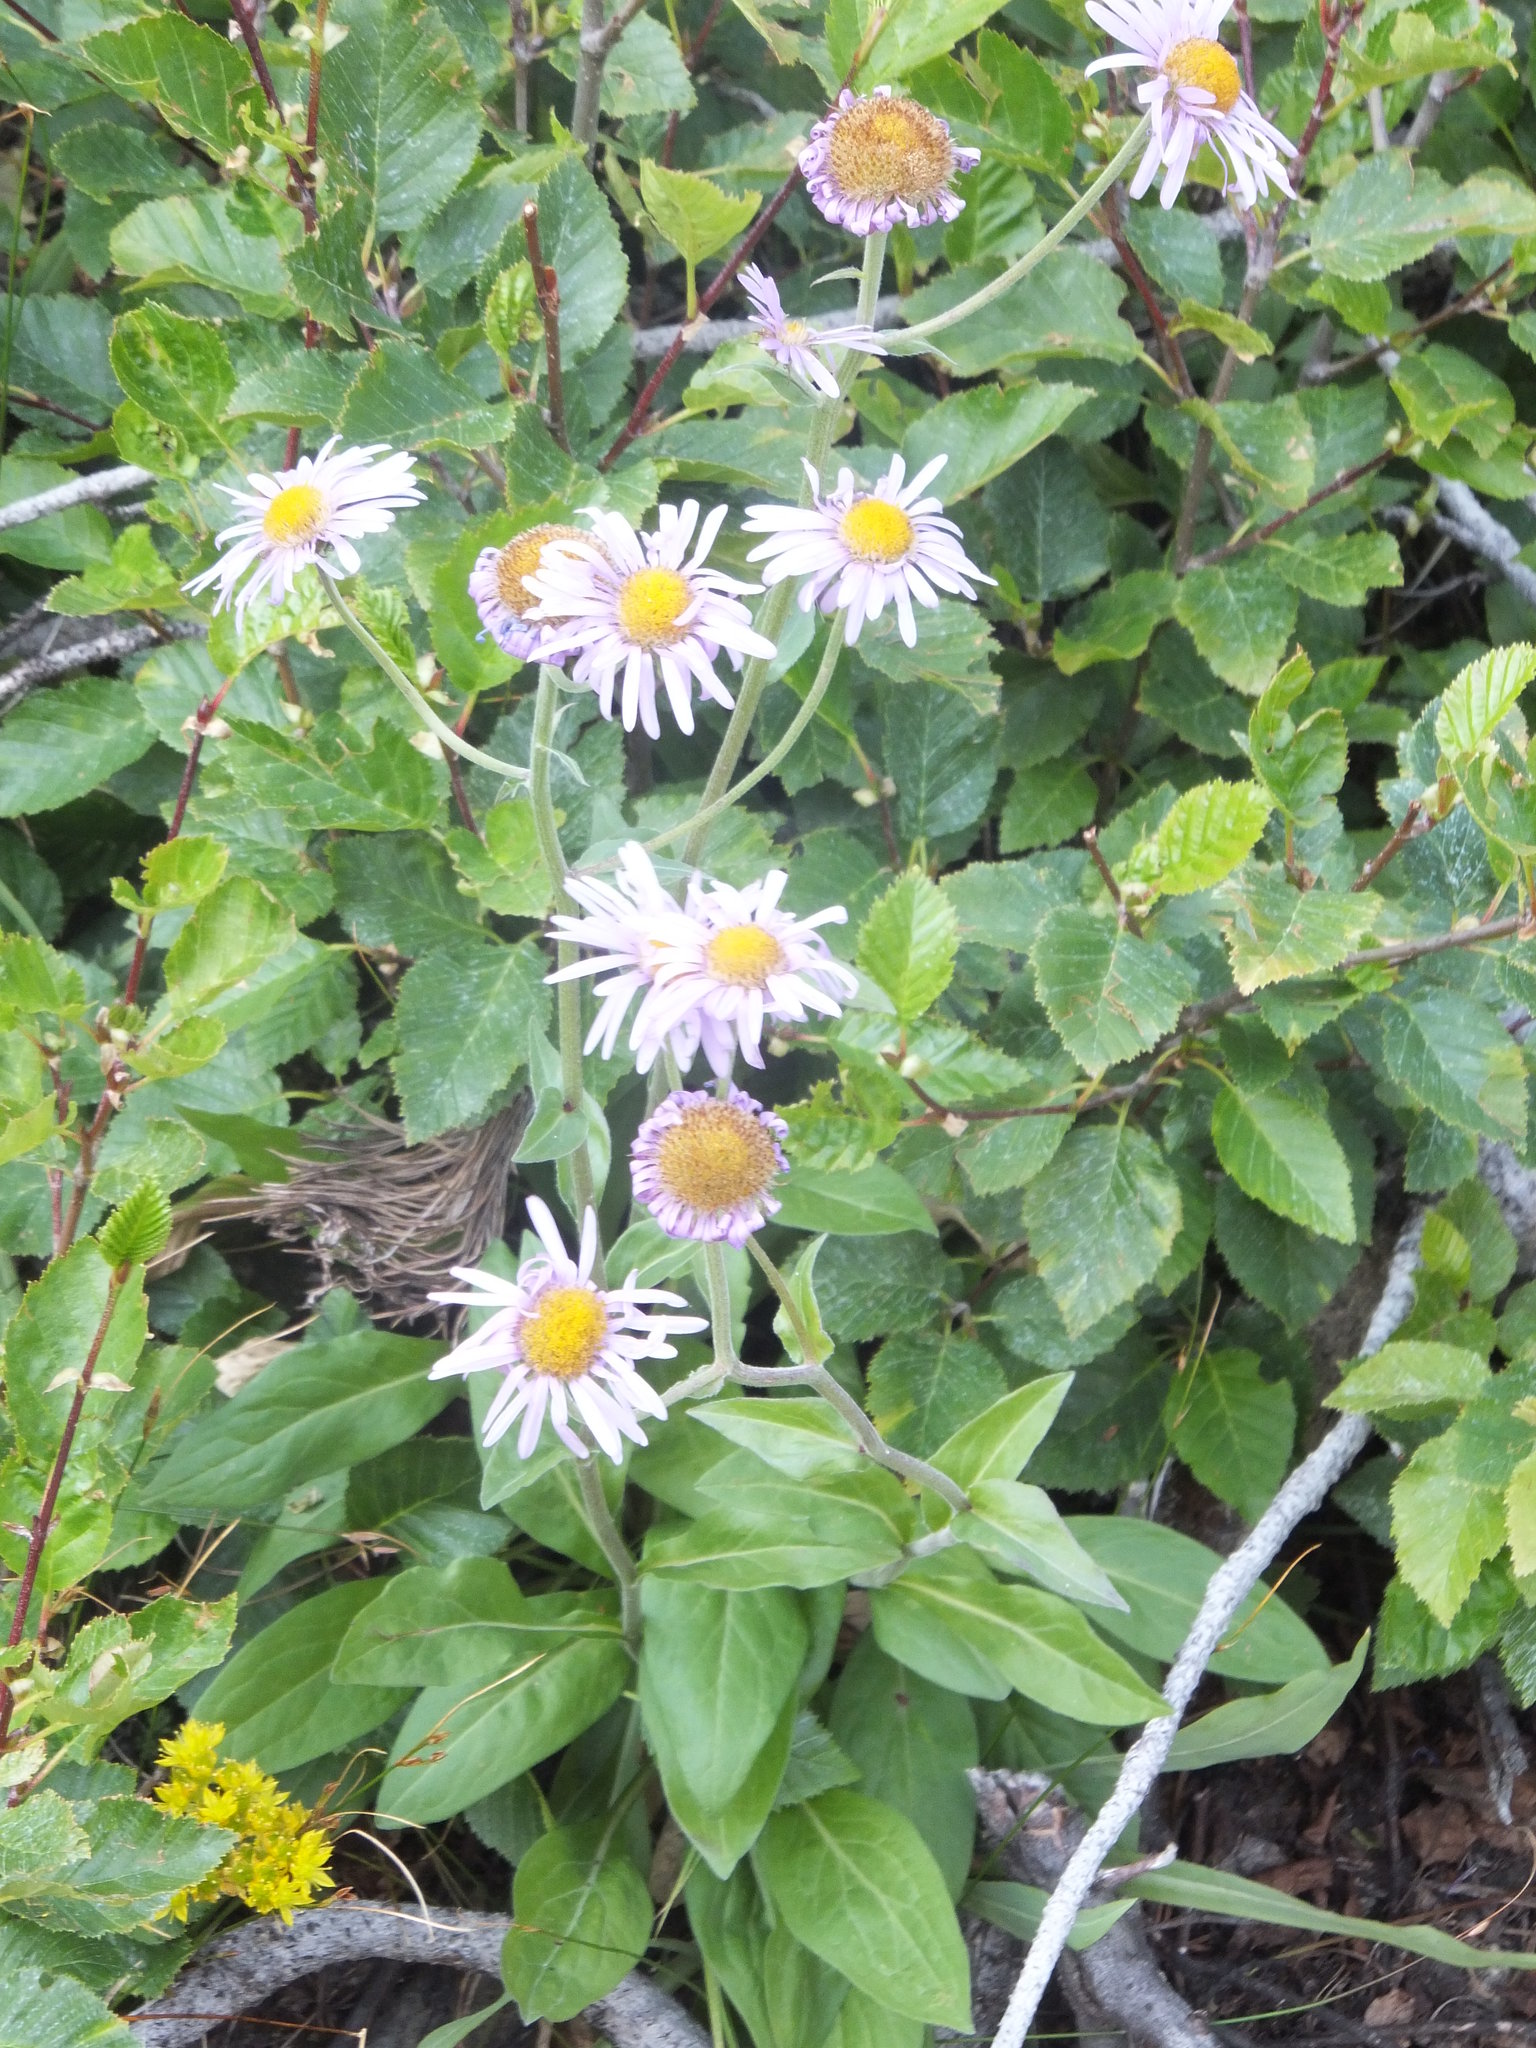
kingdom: Plantae
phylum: Tracheophyta
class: Magnoliopsida
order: Asterales
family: Asteraceae
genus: Erigeron
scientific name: Erigeron speciosus
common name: Aspen fleabane
